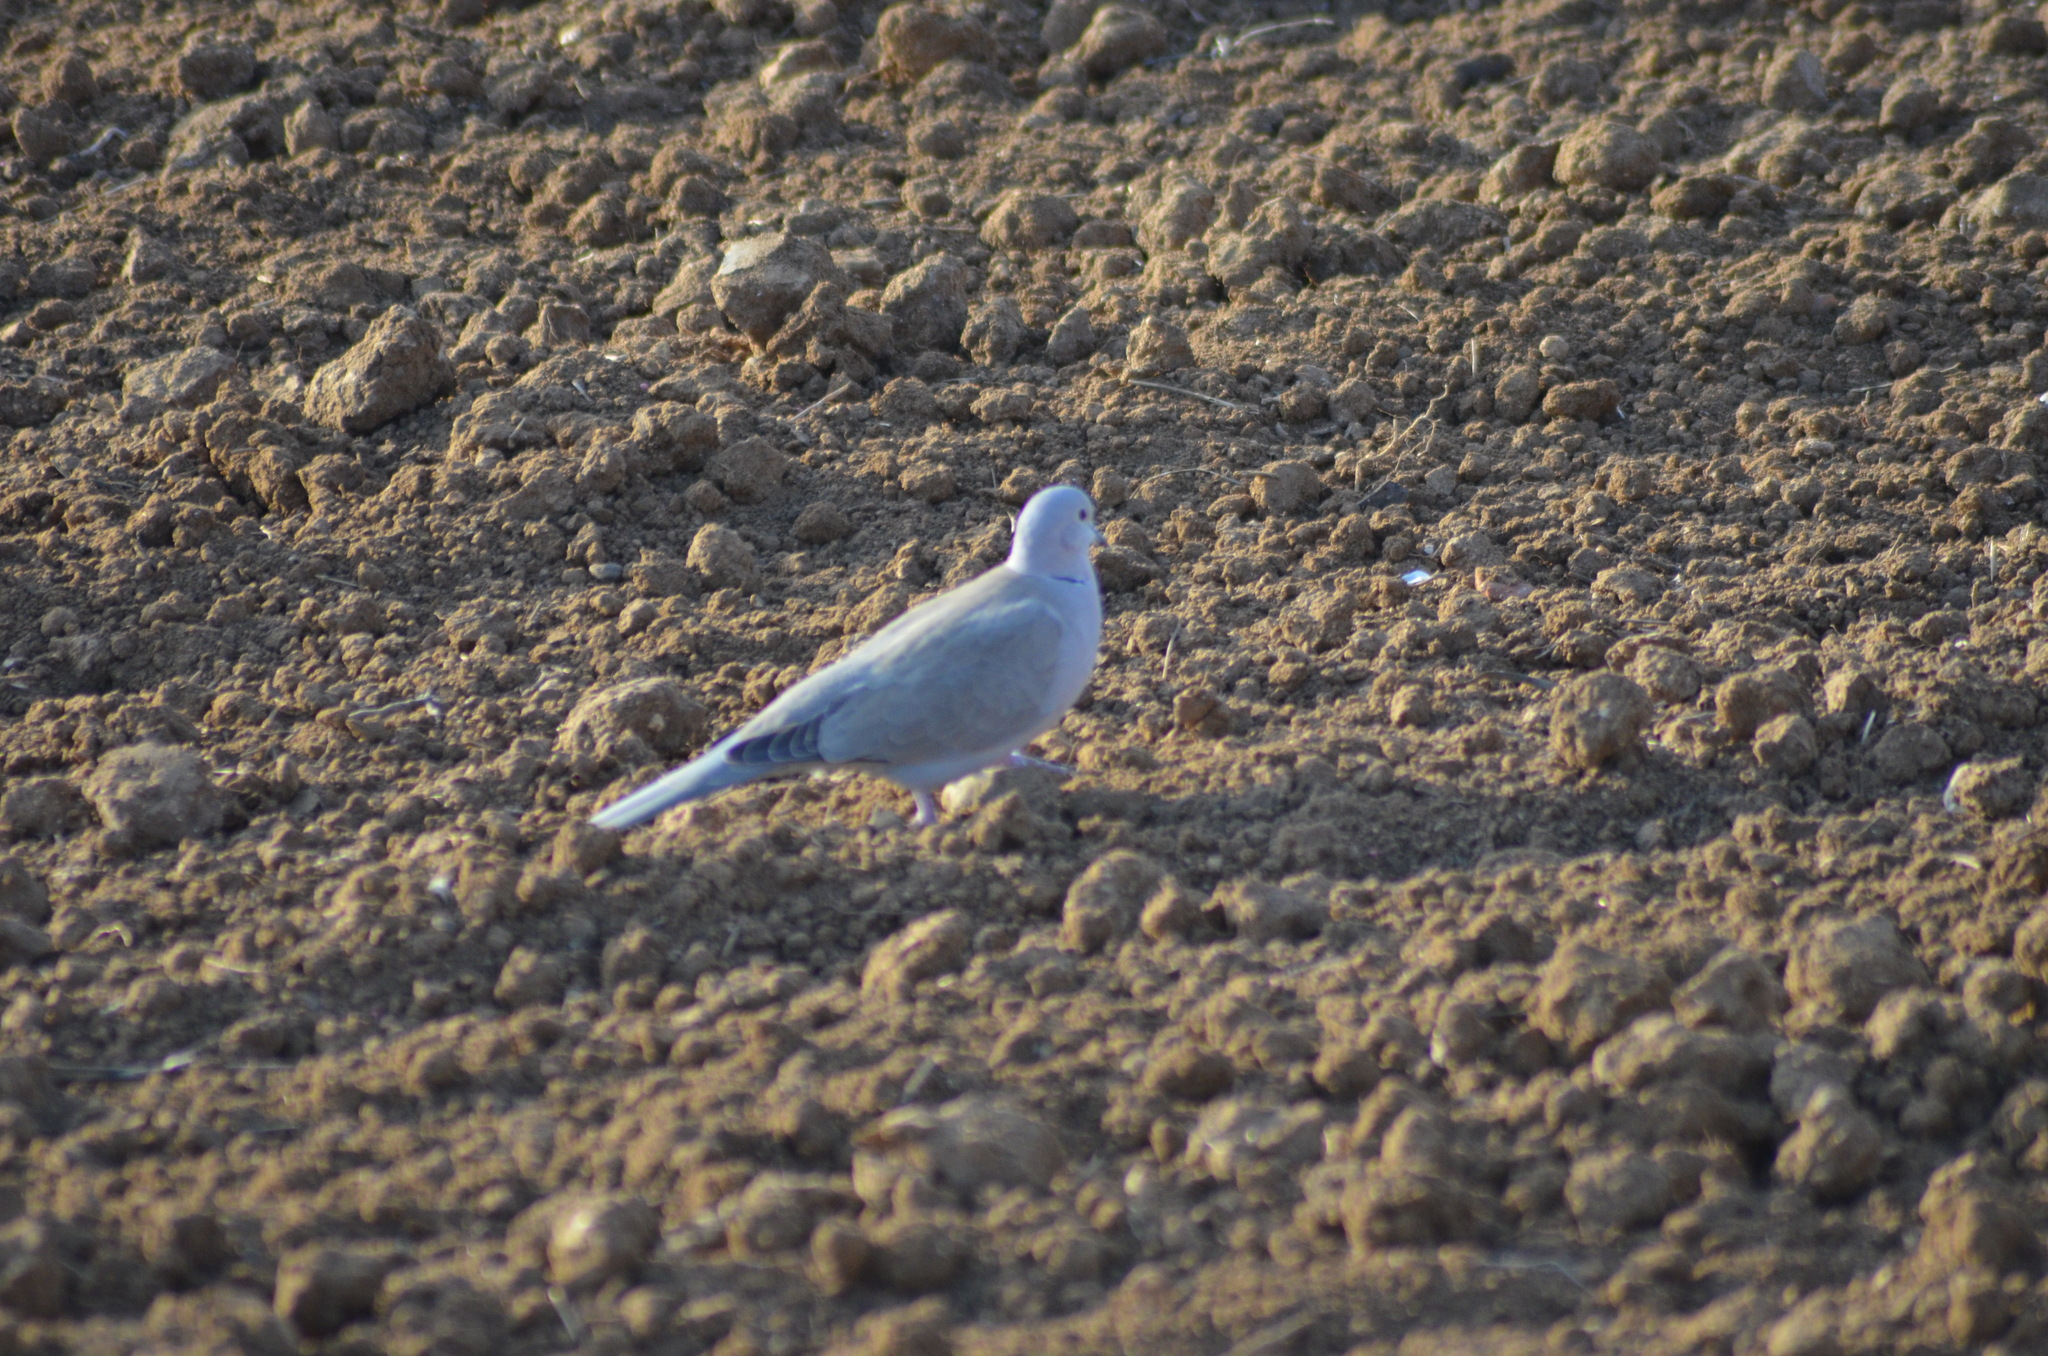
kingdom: Animalia
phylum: Chordata
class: Aves
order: Columbiformes
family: Columbidae
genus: Streptopelia
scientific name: Streptopelia decaocto
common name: Eurasian collared dove
